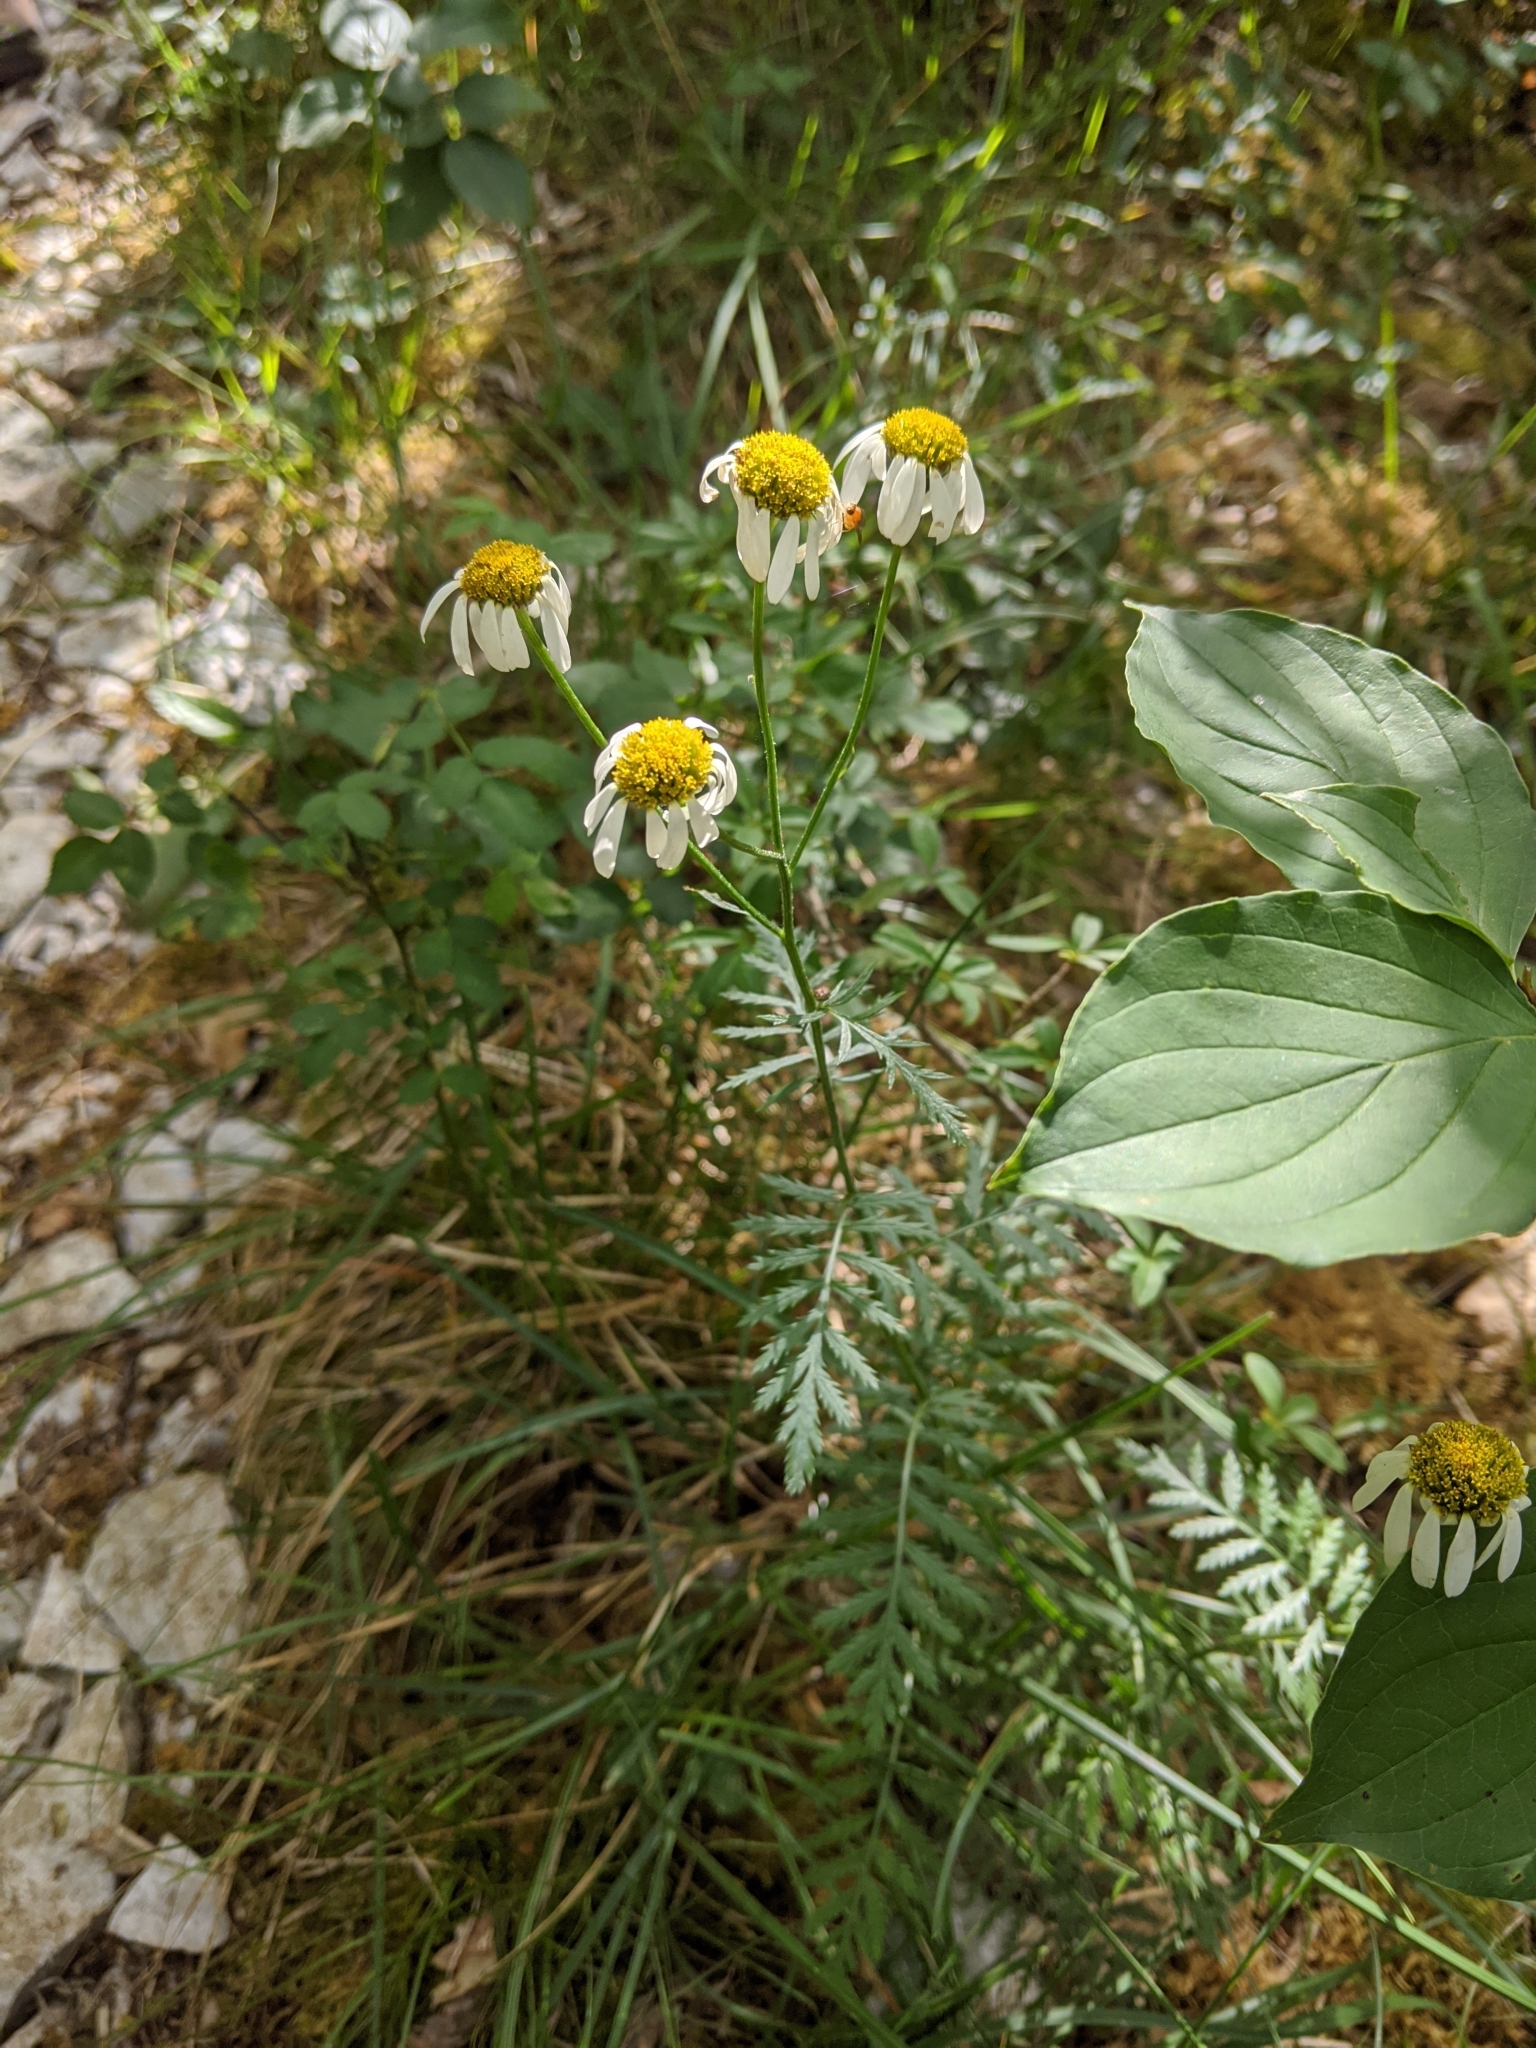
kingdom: Plantae
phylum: Tracheophyta
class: Magnoliopsida
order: Asterales
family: Asteraceae
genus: Tanacetum
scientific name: Tanacetum corymbosum
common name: Scentless feverfew
